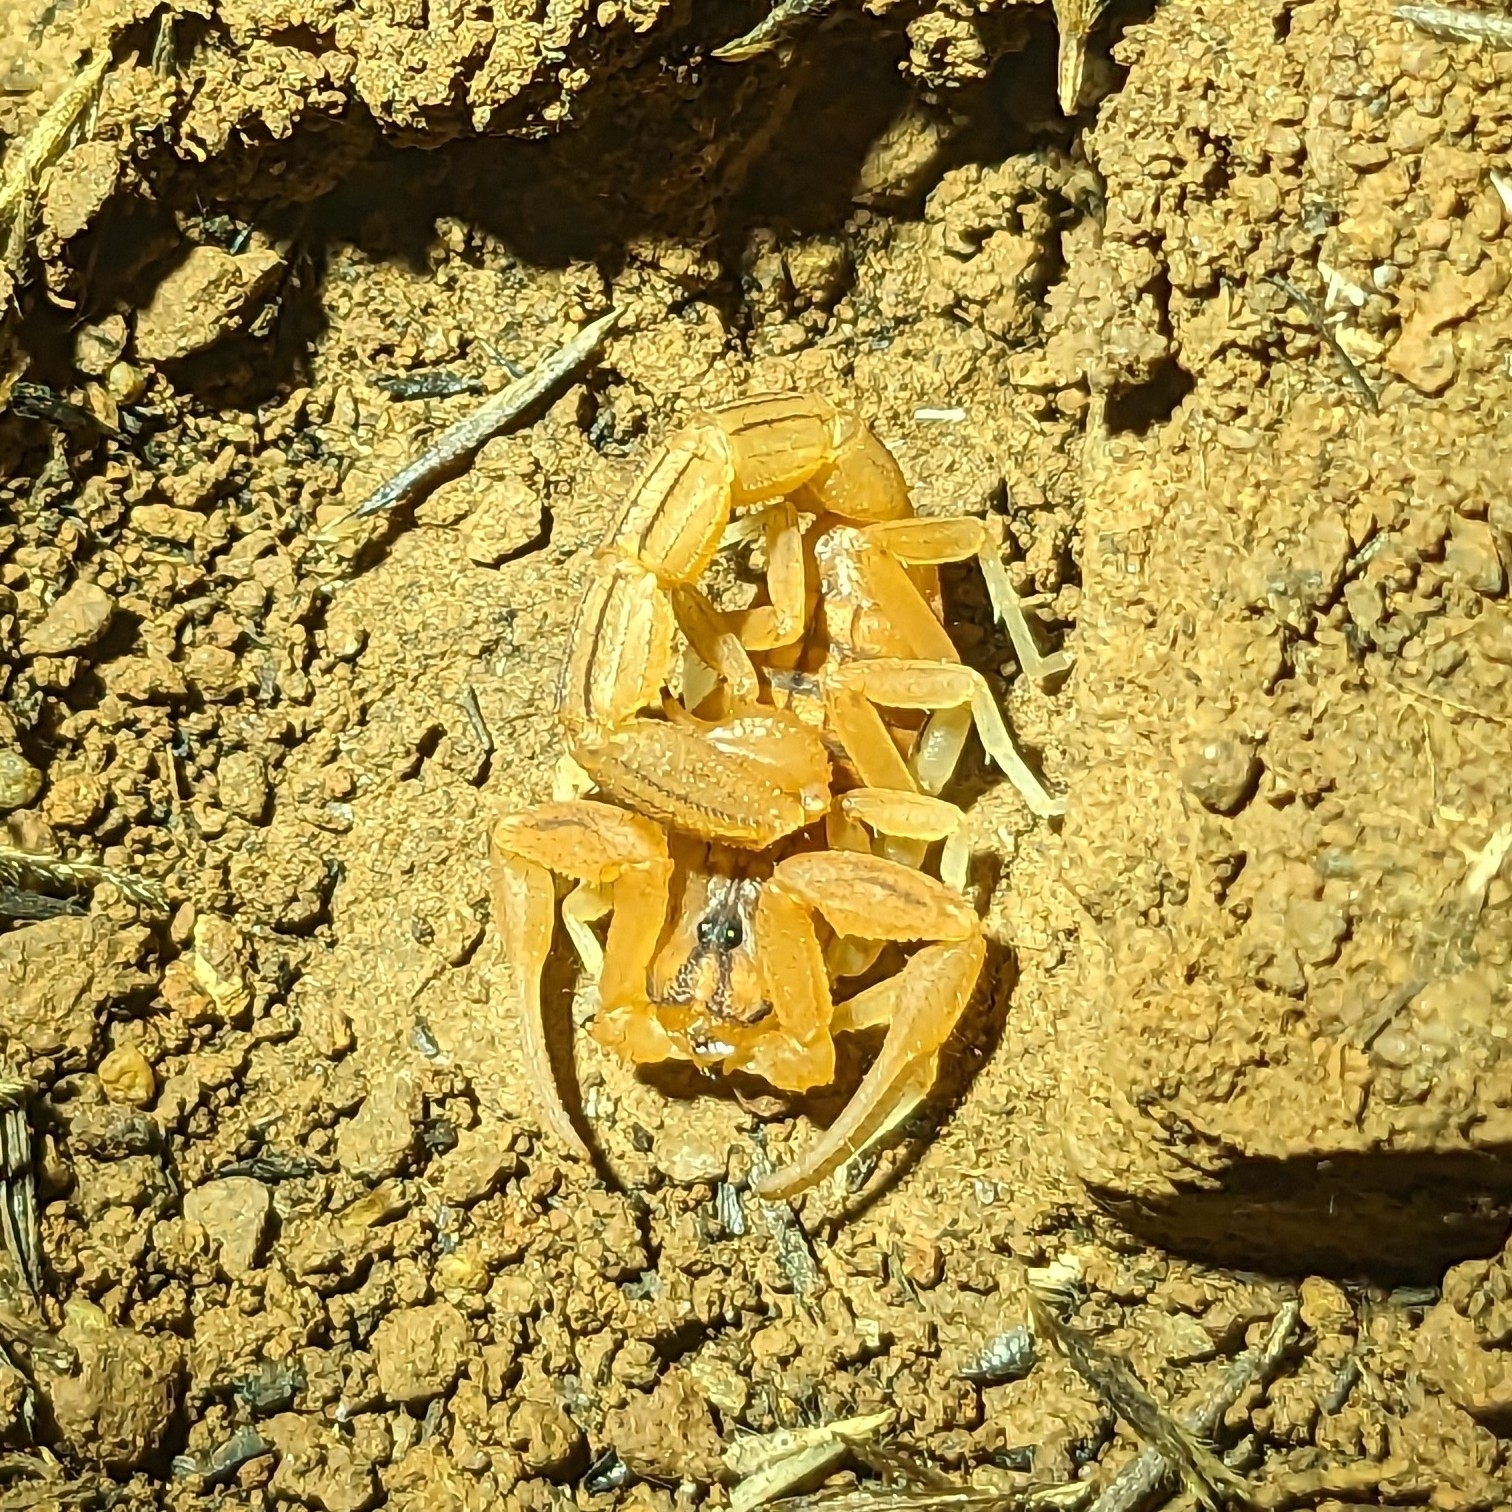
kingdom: Animalia
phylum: Arthropoda
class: Arachnida
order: Scorpiones
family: Buthidae
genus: Hottentotta
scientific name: Hottentotta tamulus
